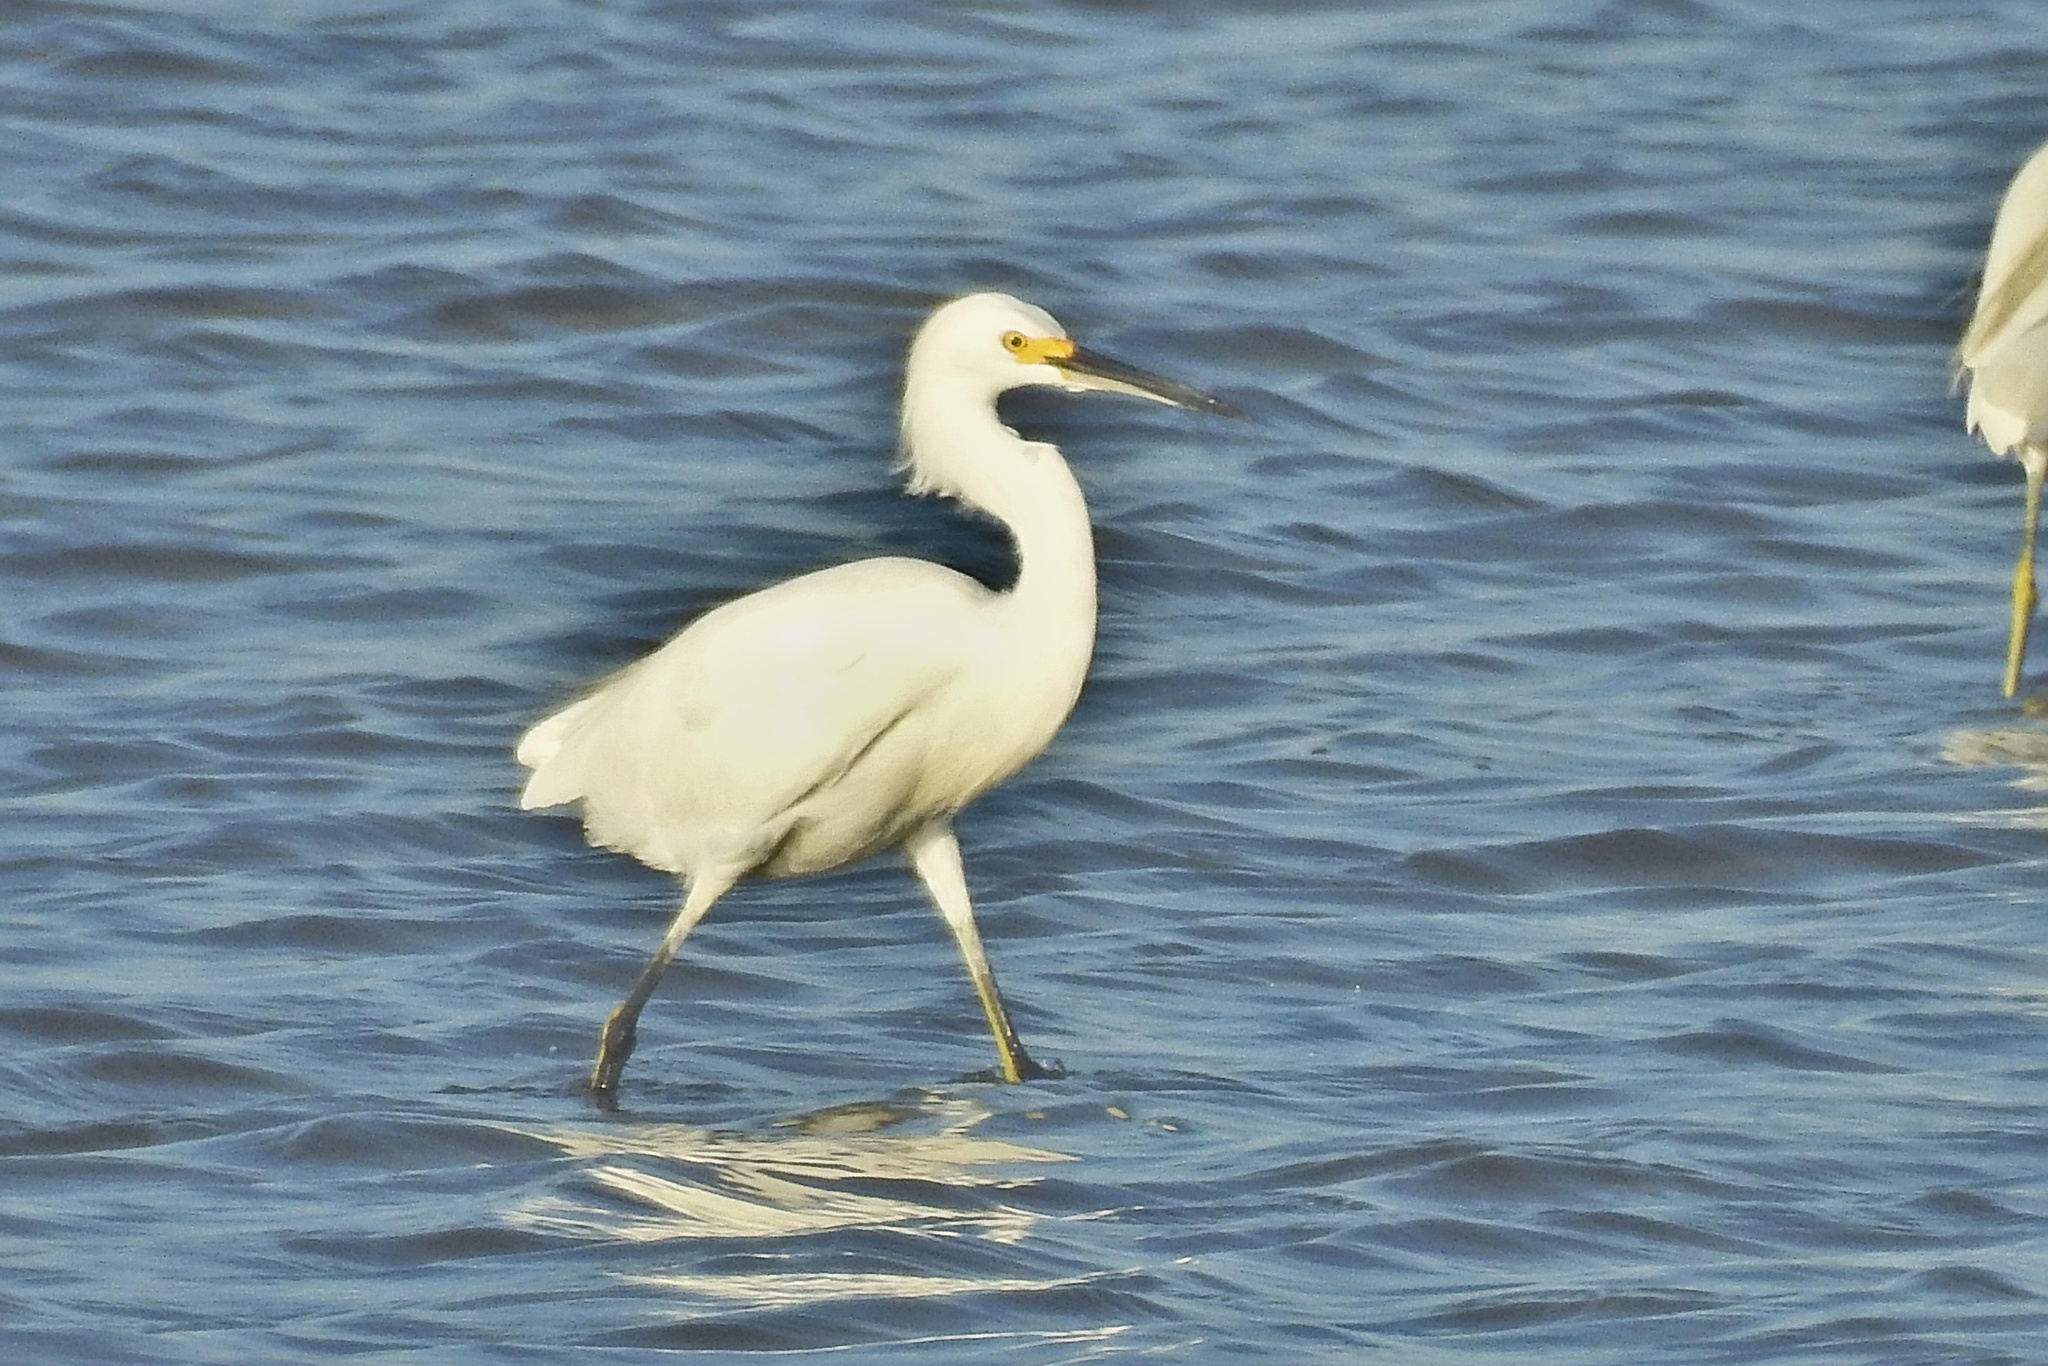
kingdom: Animalia
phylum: Chordata
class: Aves
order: Pelecaniformes
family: Ardeidae
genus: Egretta
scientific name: Egretta thula
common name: Snowy egret
